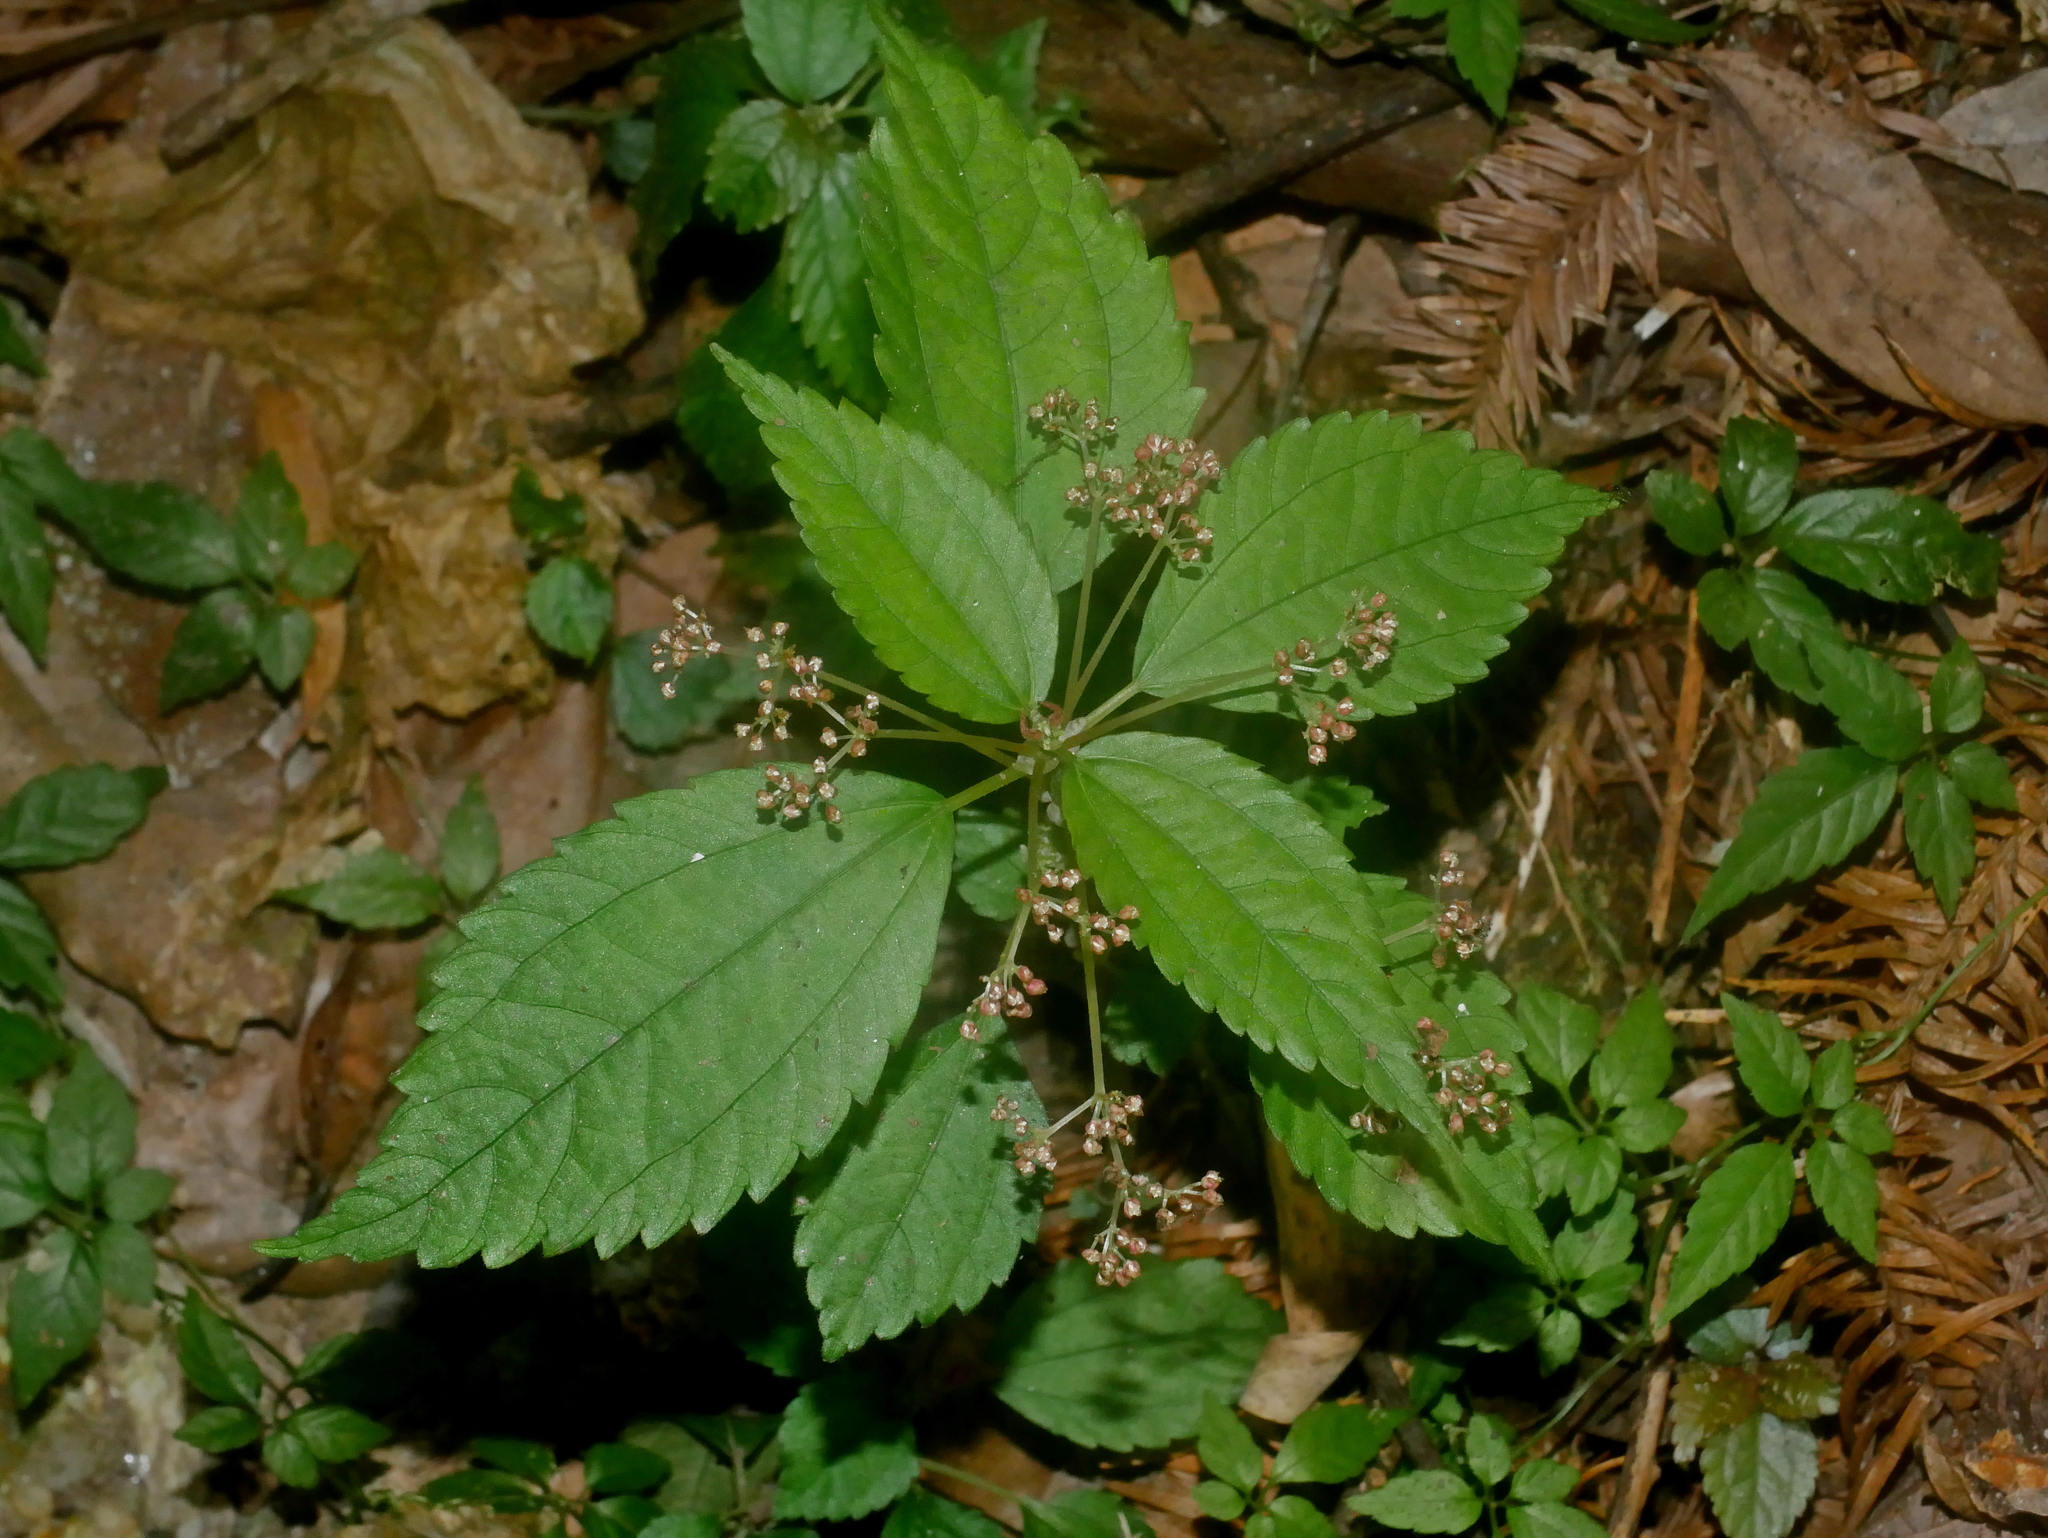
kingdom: Plantae
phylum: Tracheophyta
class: Magnoliopsida
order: Rosales
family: Urticaceae
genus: Pilea
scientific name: Pilea brevicornuta
